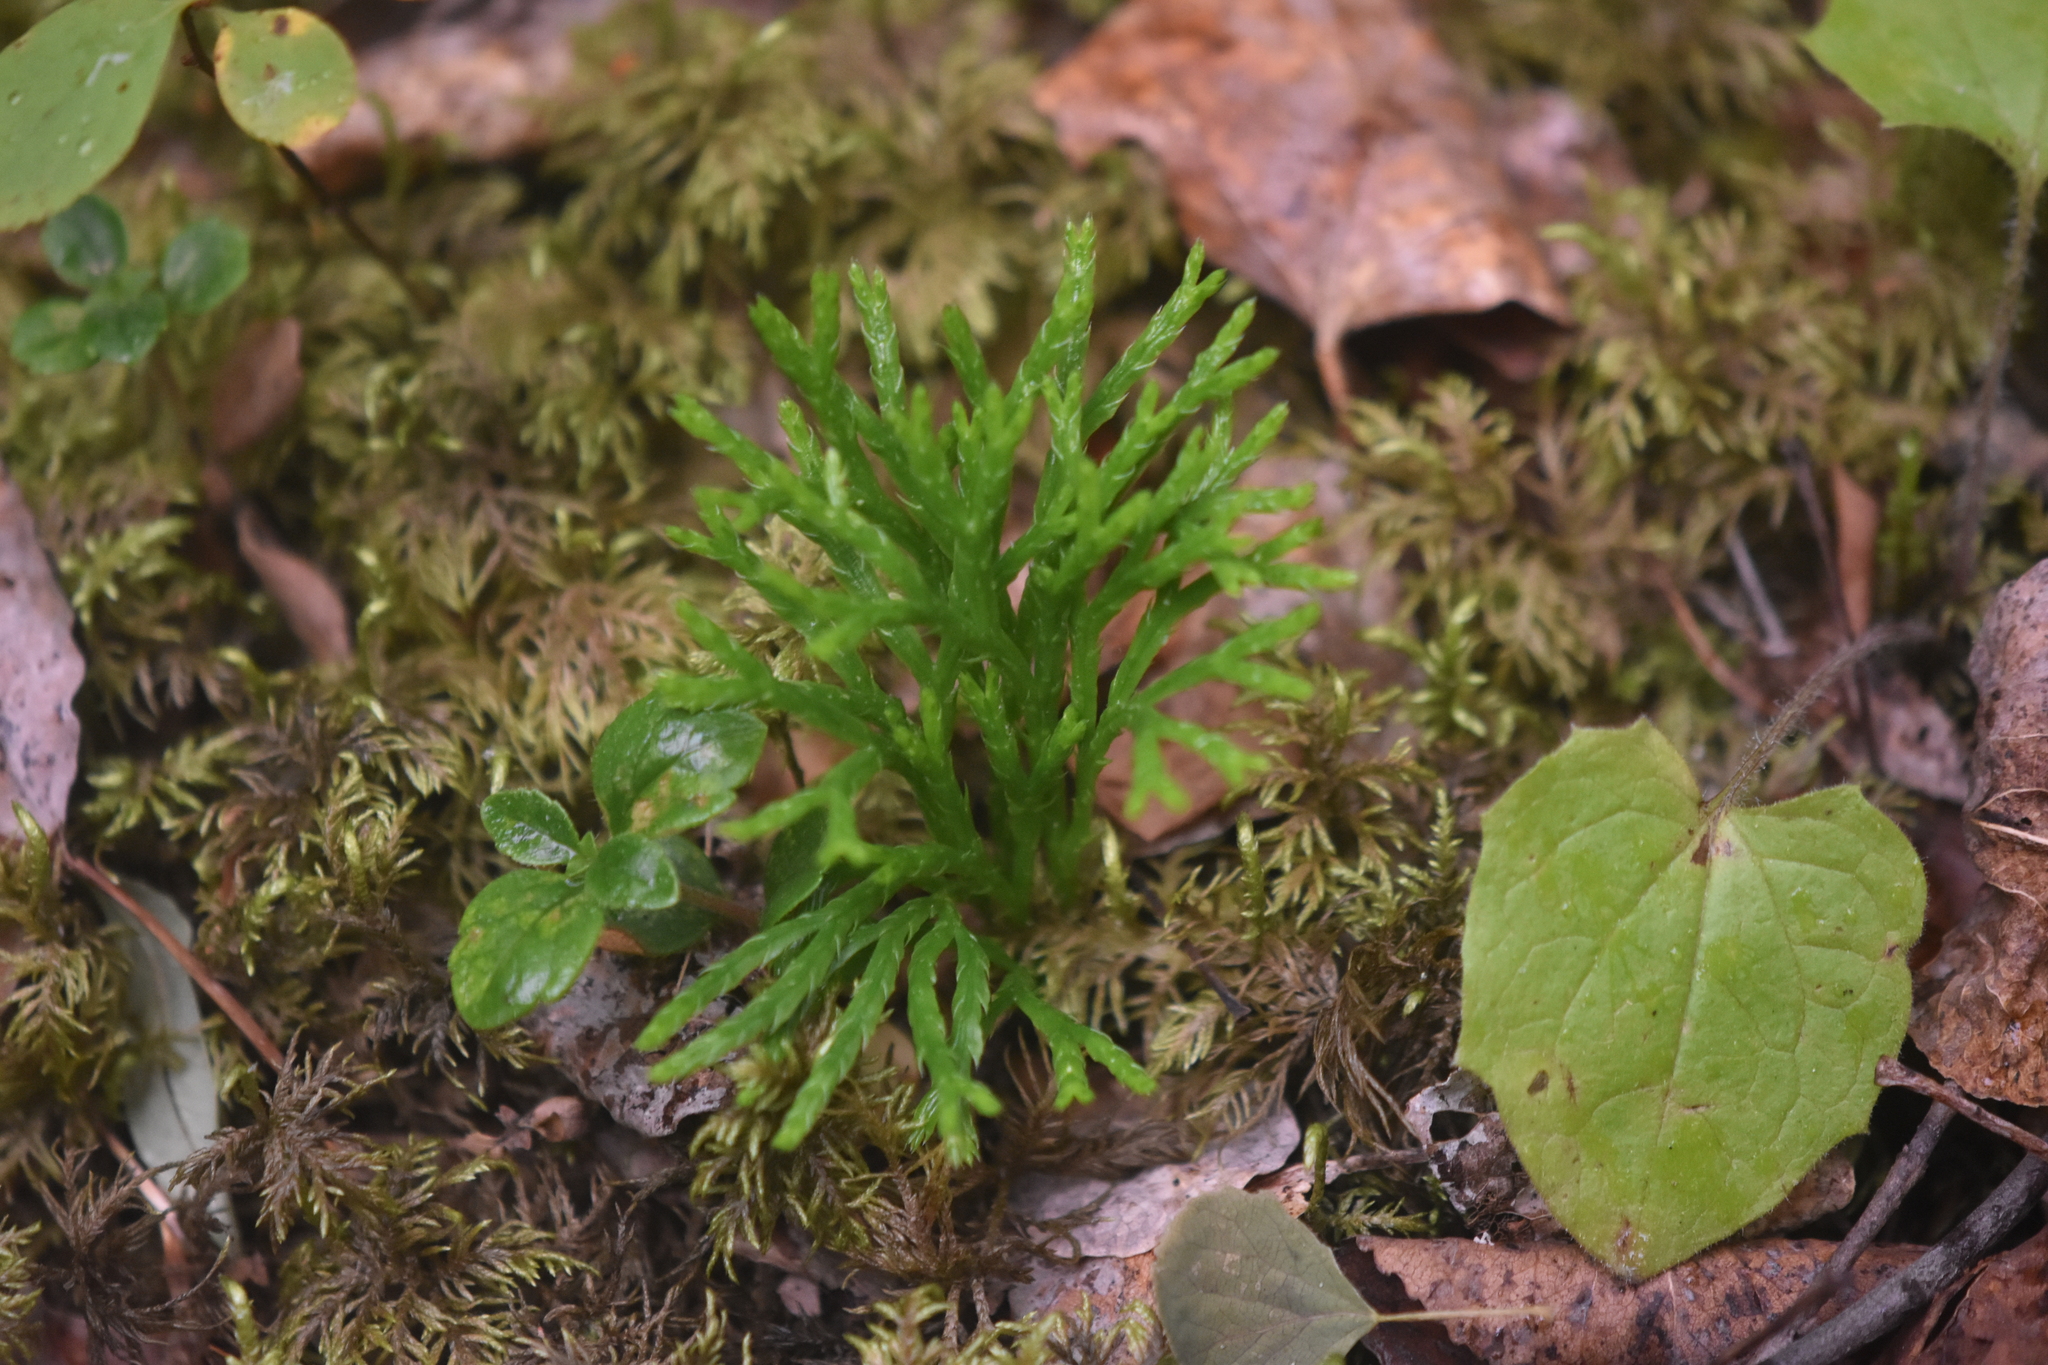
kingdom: Plantae
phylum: Tracheophyta
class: Lycopodiopsida
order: Lycopodiales
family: Lycopodiaceae
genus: Diphasiastrum
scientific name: Diphasiastrum complanatum
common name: Northern running-pine
